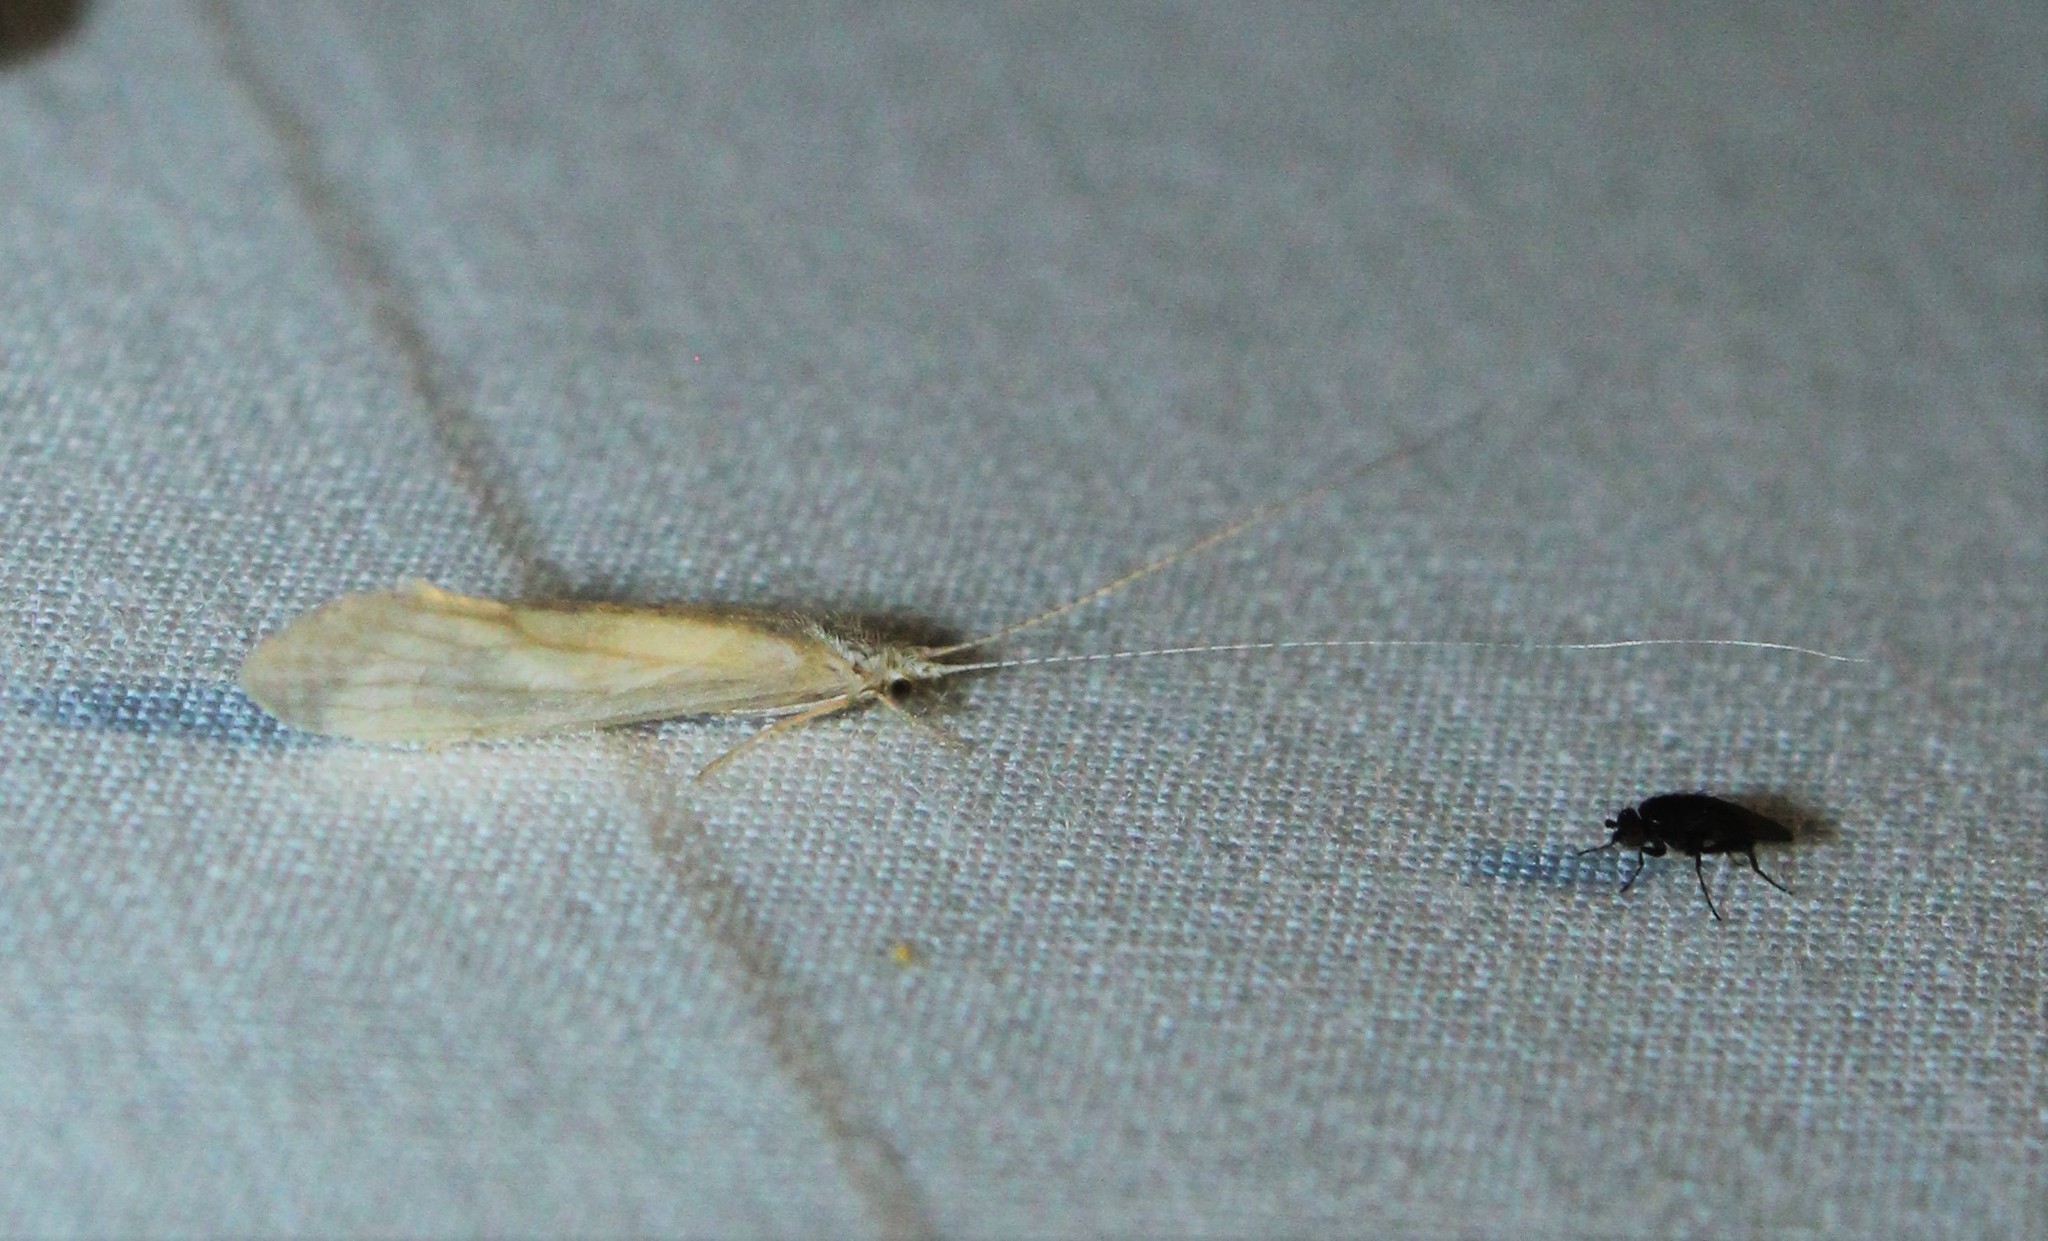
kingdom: Animalia
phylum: Arthropoda
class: Insecta
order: Trichoptera
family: Leptoceridae
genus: Nectopsyche
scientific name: Nectopsyche albida
